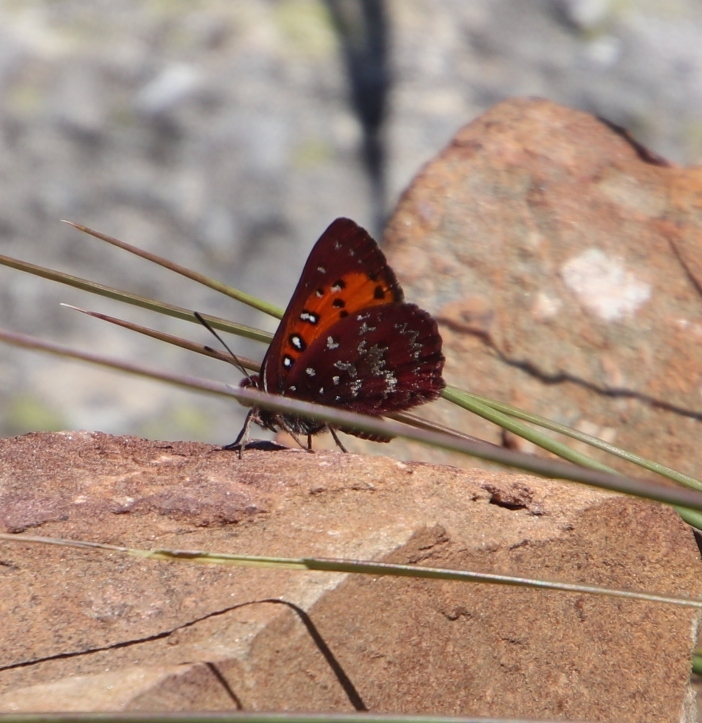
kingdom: Animalia
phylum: Arthropoda
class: Insecta
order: Lepidoptera
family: Lycaenidae
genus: Aloeides
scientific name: Aloeides dryas
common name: Transvaal copper
